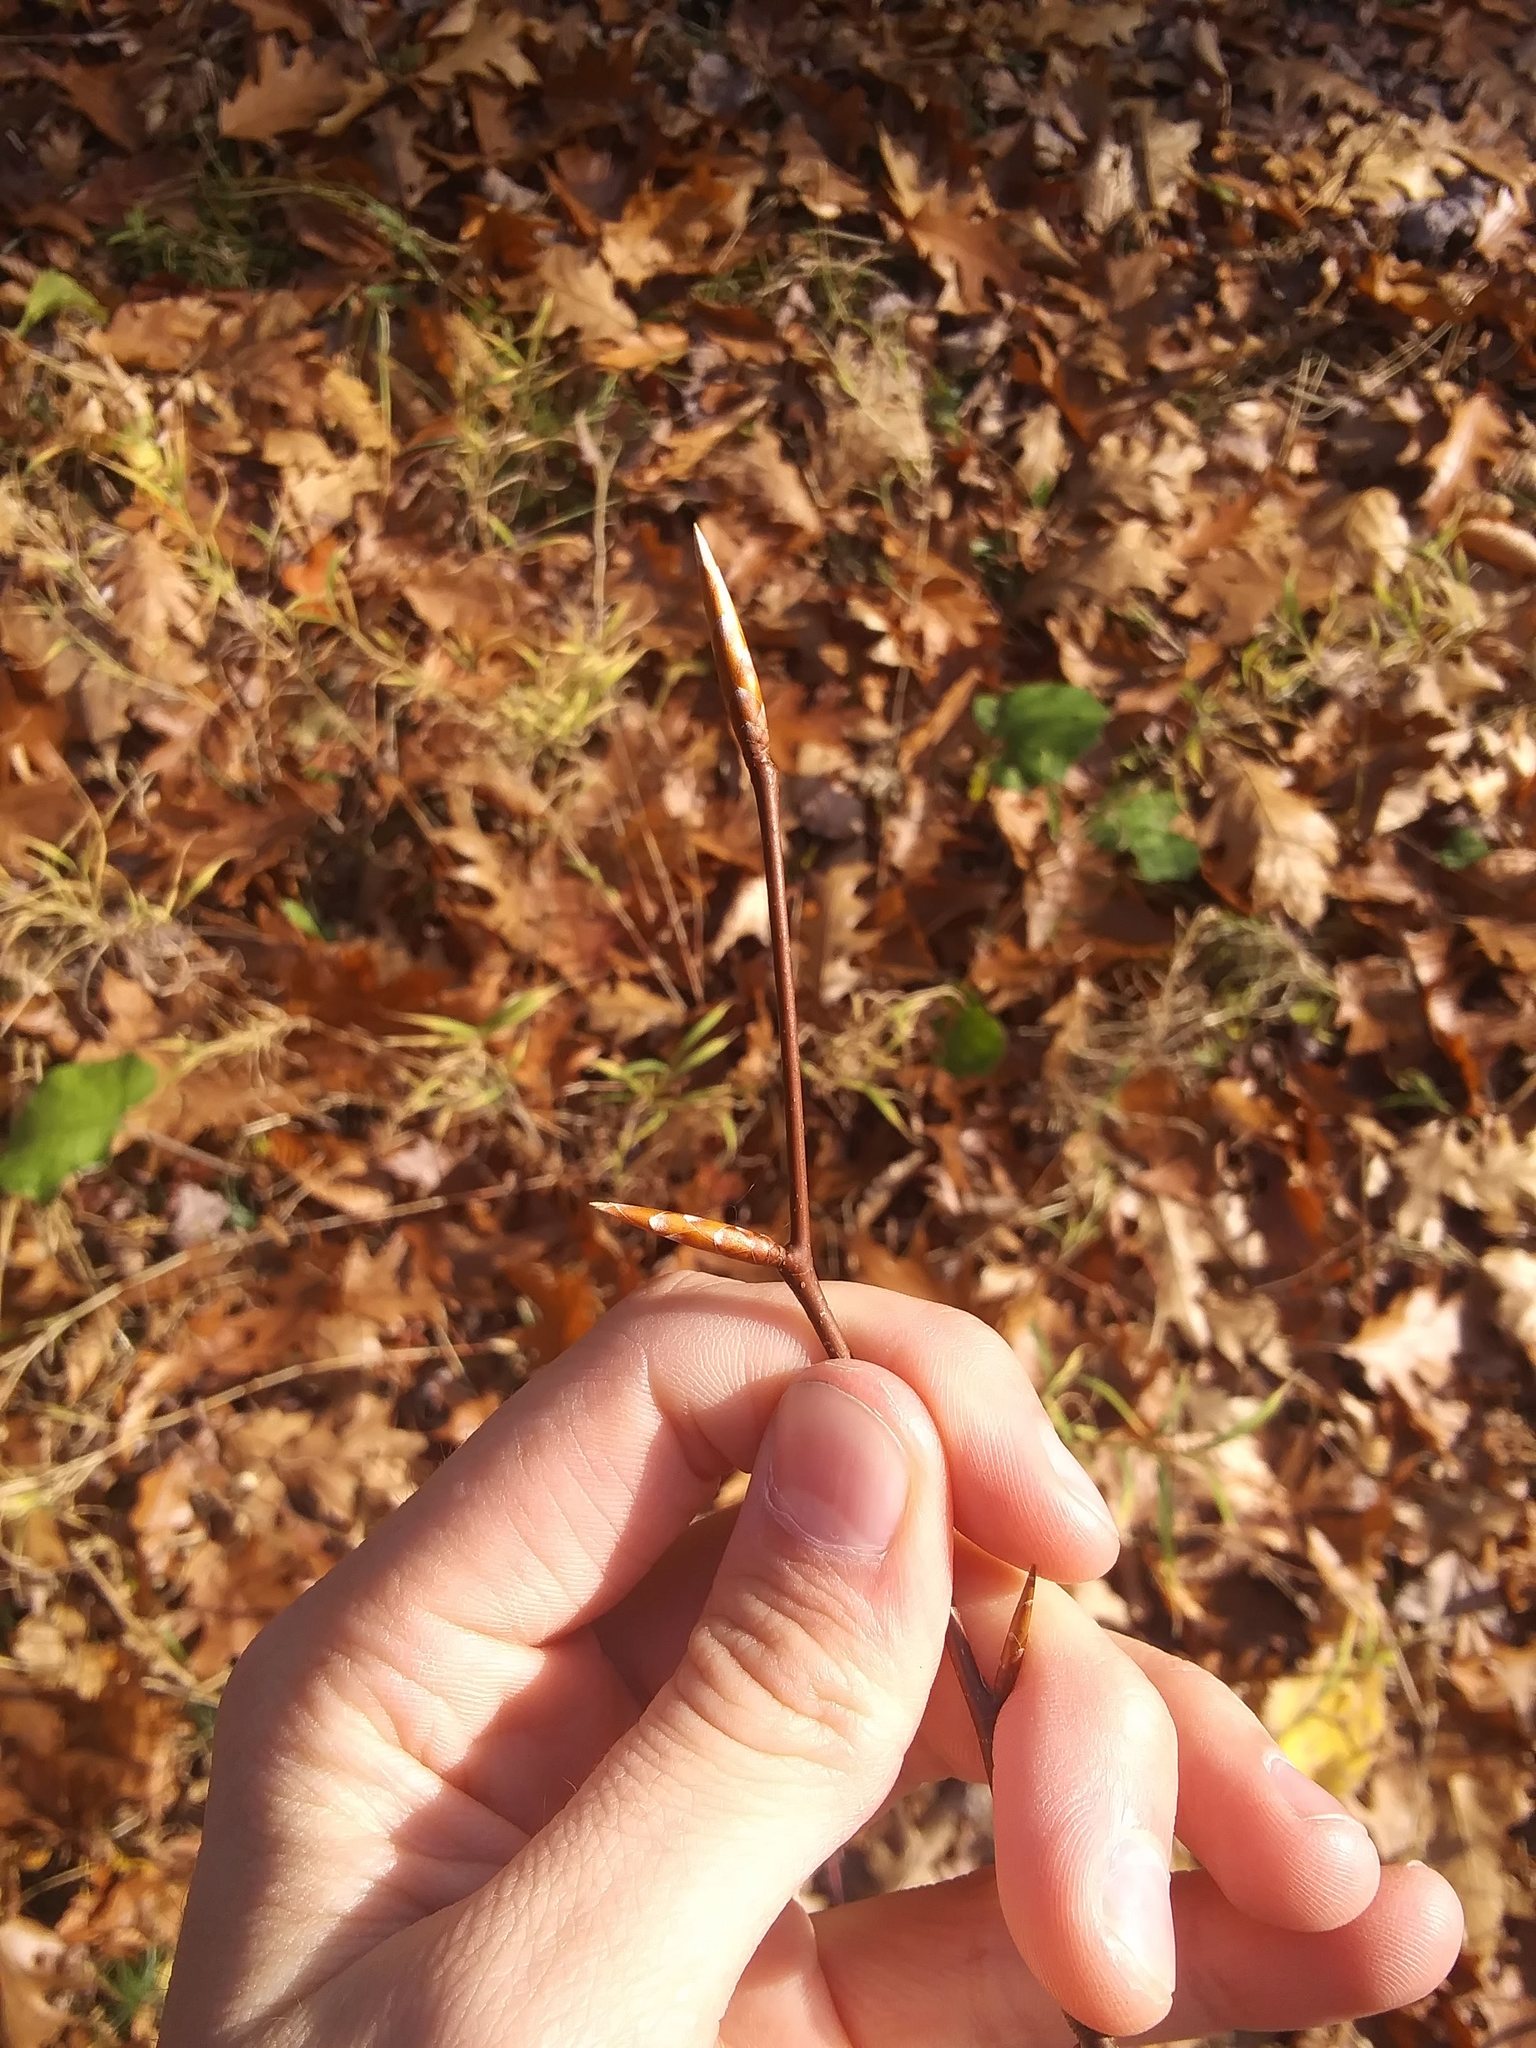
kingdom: Plantae
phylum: Tracheophyta
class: Magnoliopsida
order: Fagales
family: Fagaceae
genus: Fagus
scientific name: Fagus grandifolia
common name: American beech
